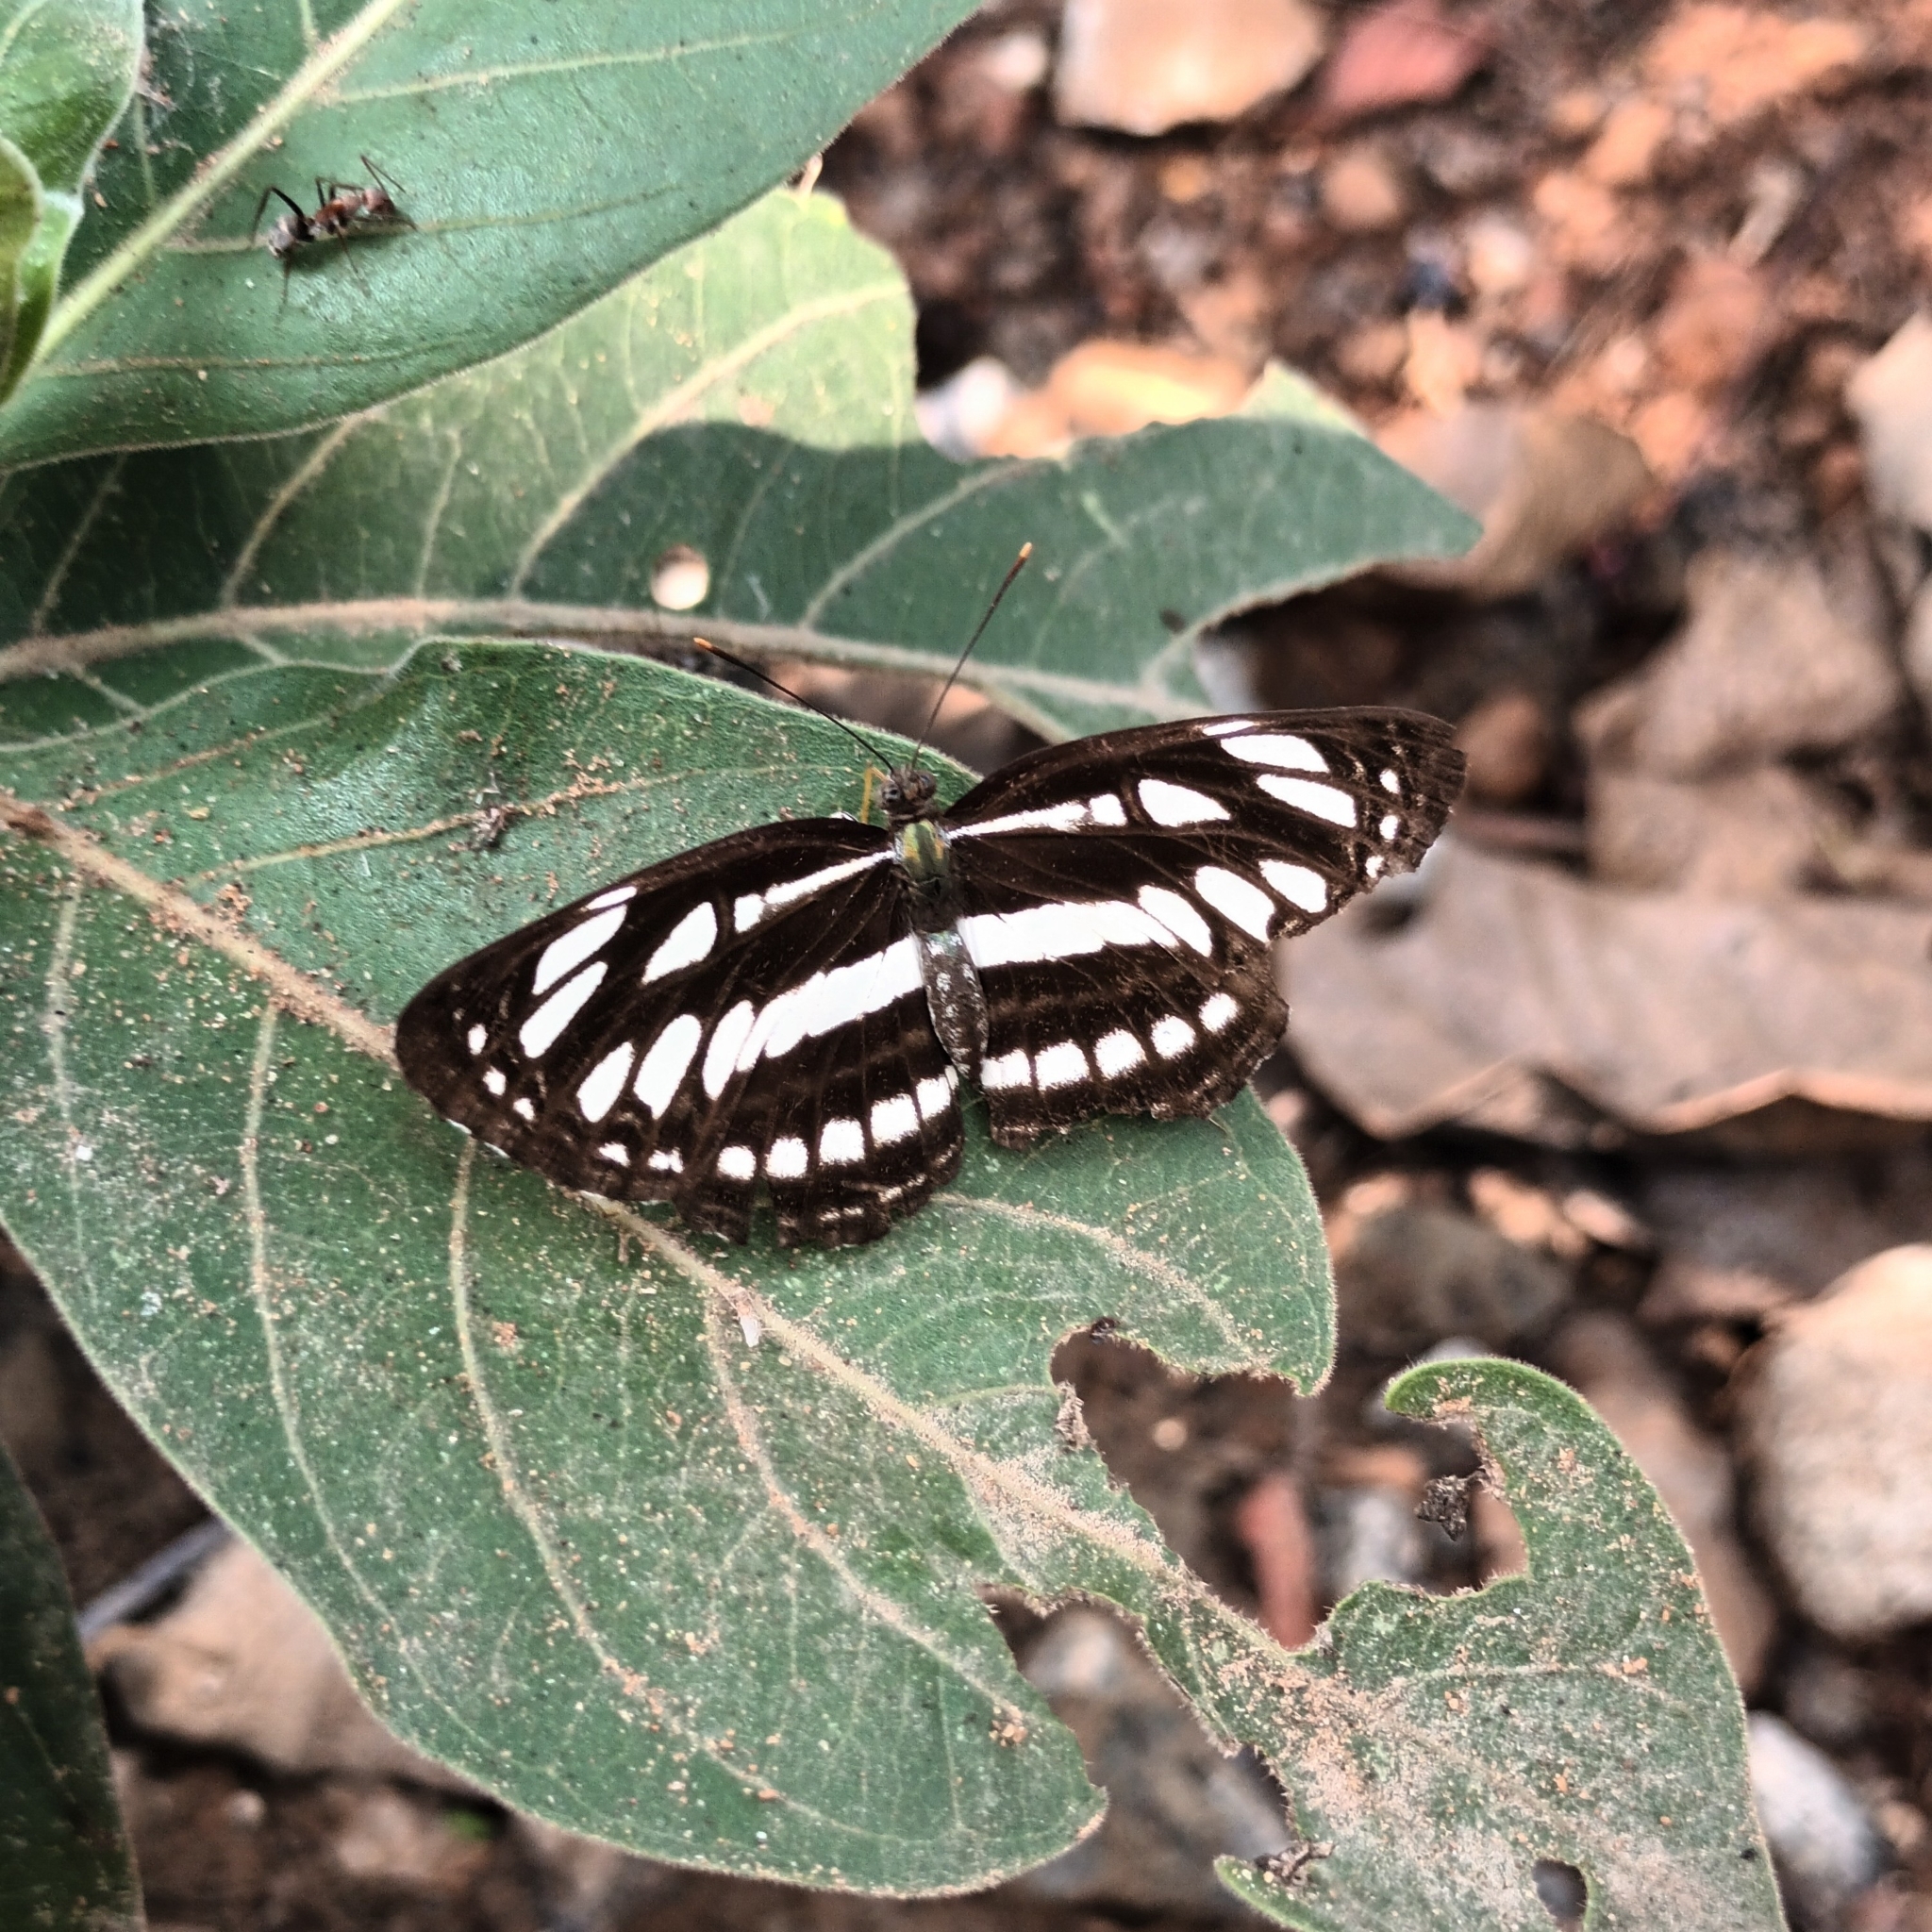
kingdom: Animalia
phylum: Arthropoda
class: Insecta
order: Lepidoptera
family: Nymphalidae
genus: Neptis
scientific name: Neptis hylas
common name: Common sailer
